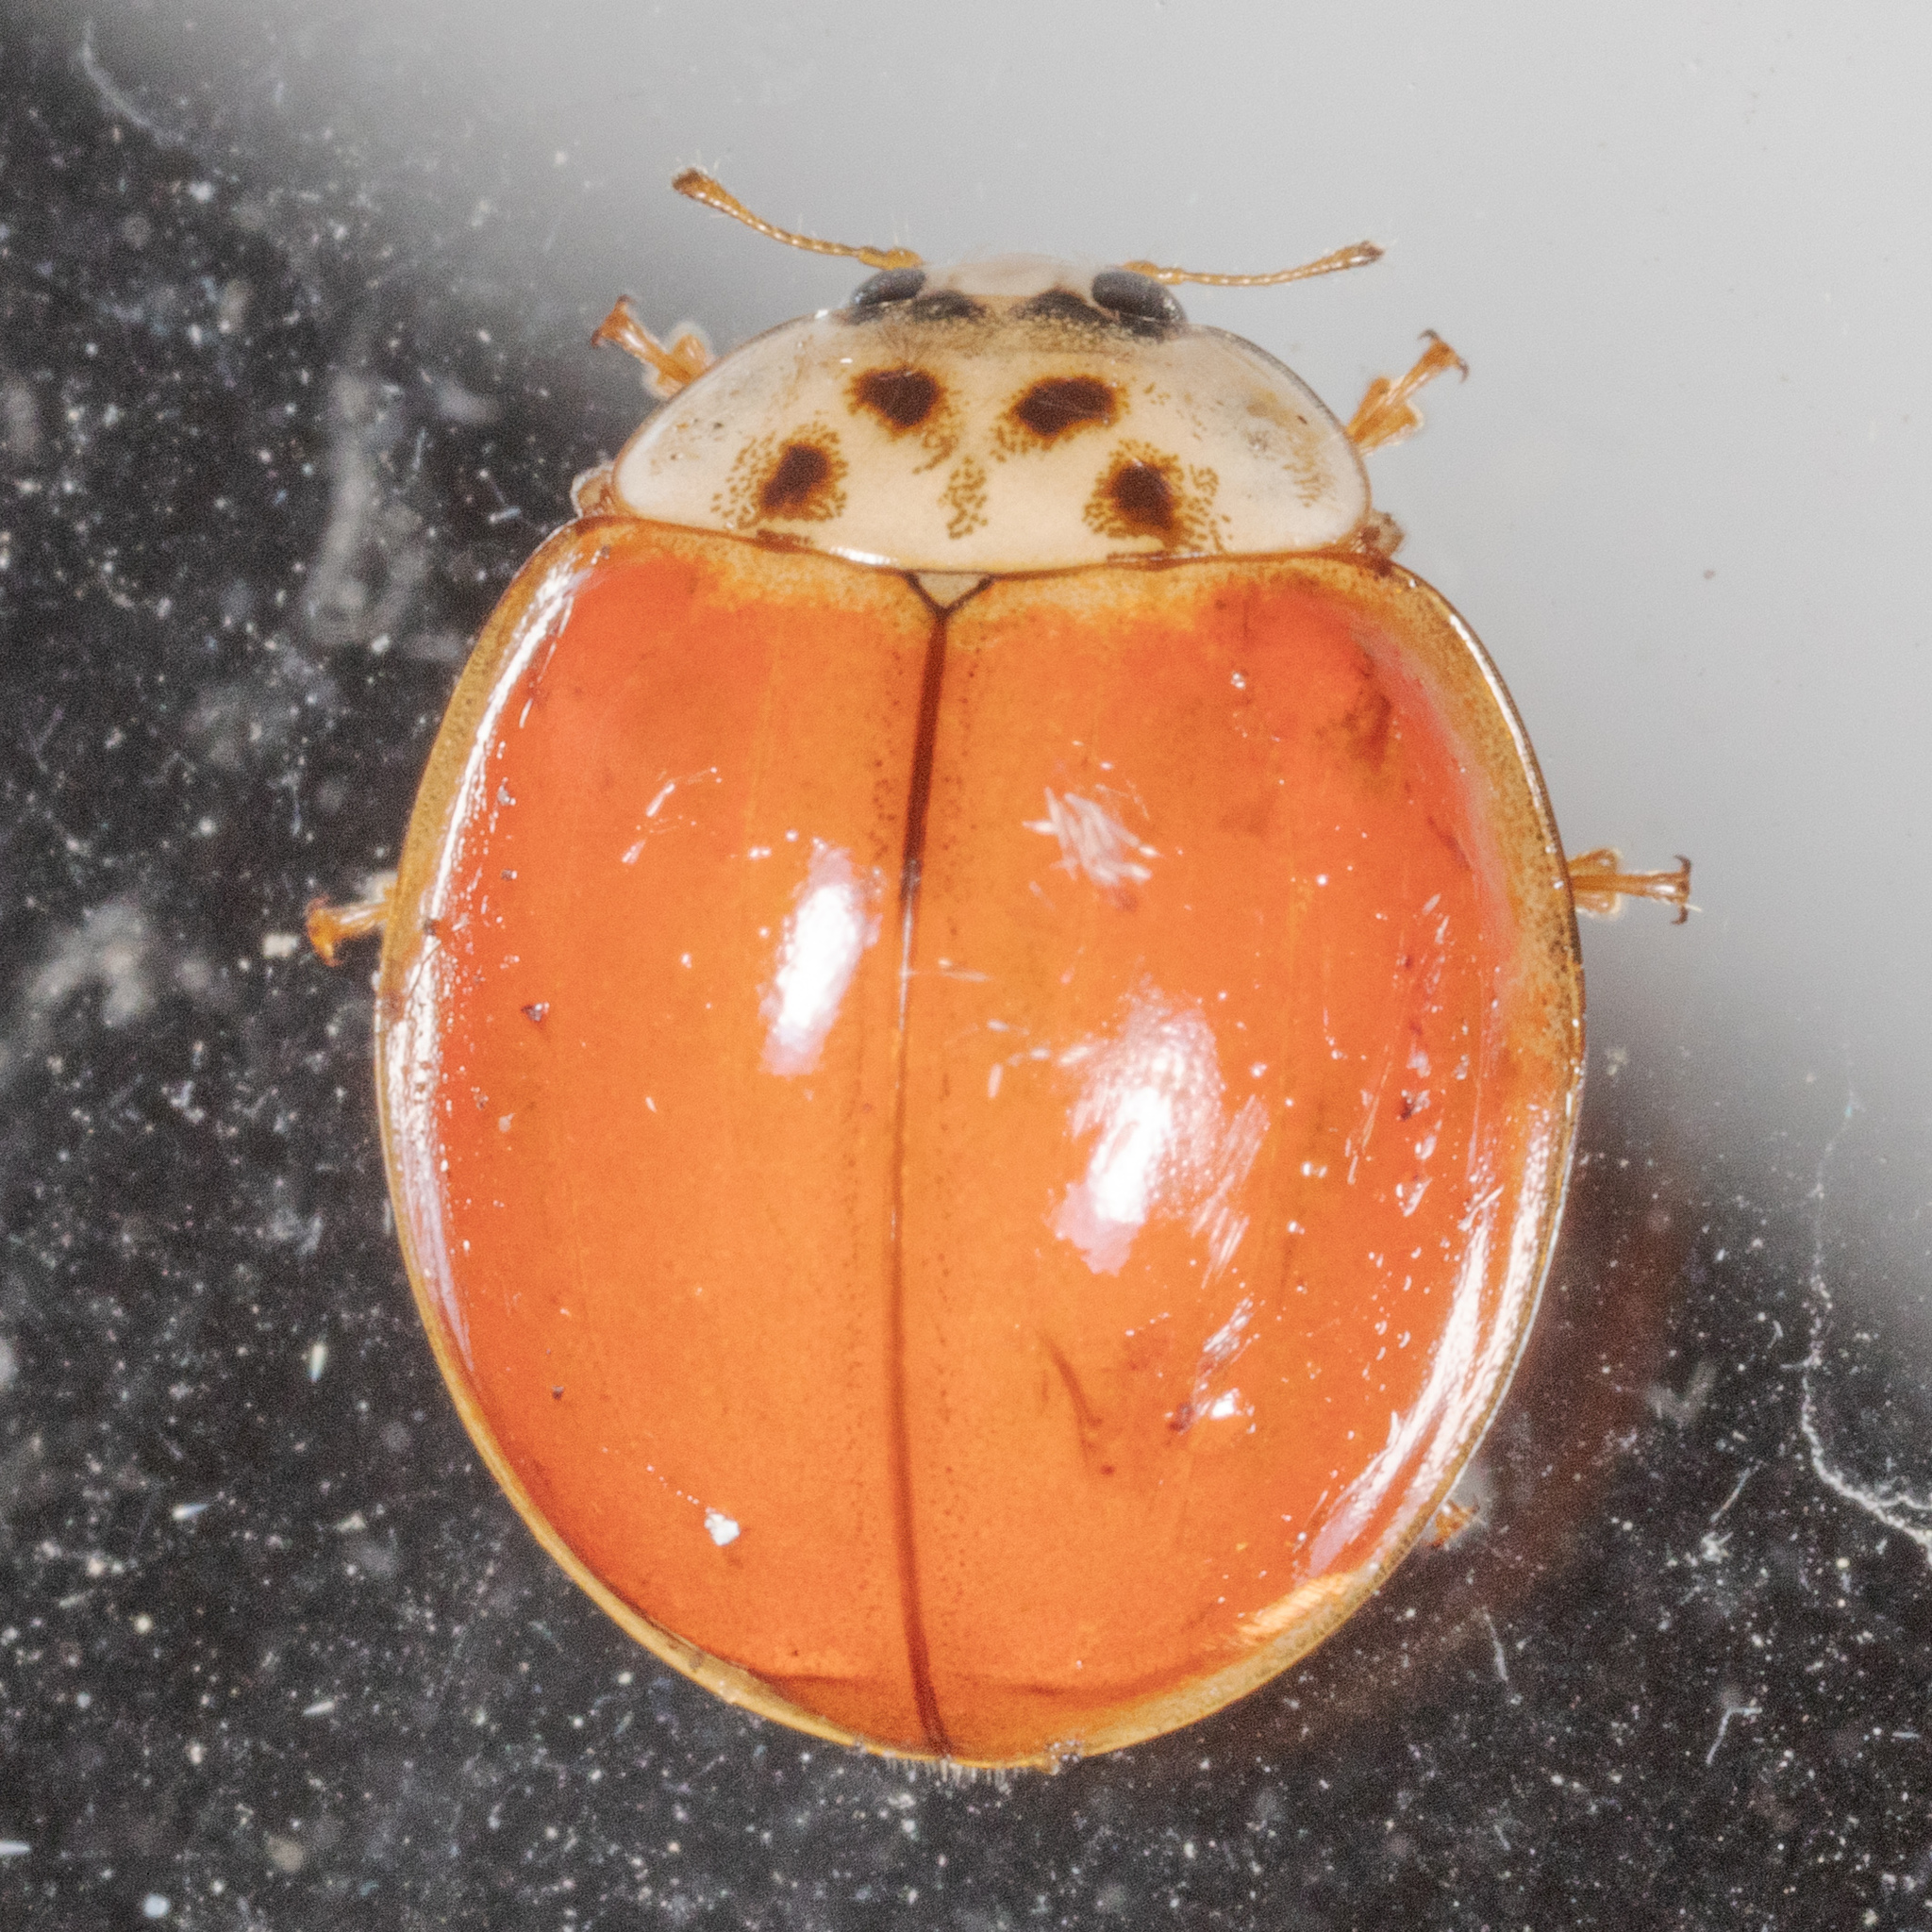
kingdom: Animalia
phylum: Arthropoda
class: Insecta
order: Coleoptera
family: Coccinellidae
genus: Harmonia
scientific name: Harmonia axyridis
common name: Harlequin ladybird
